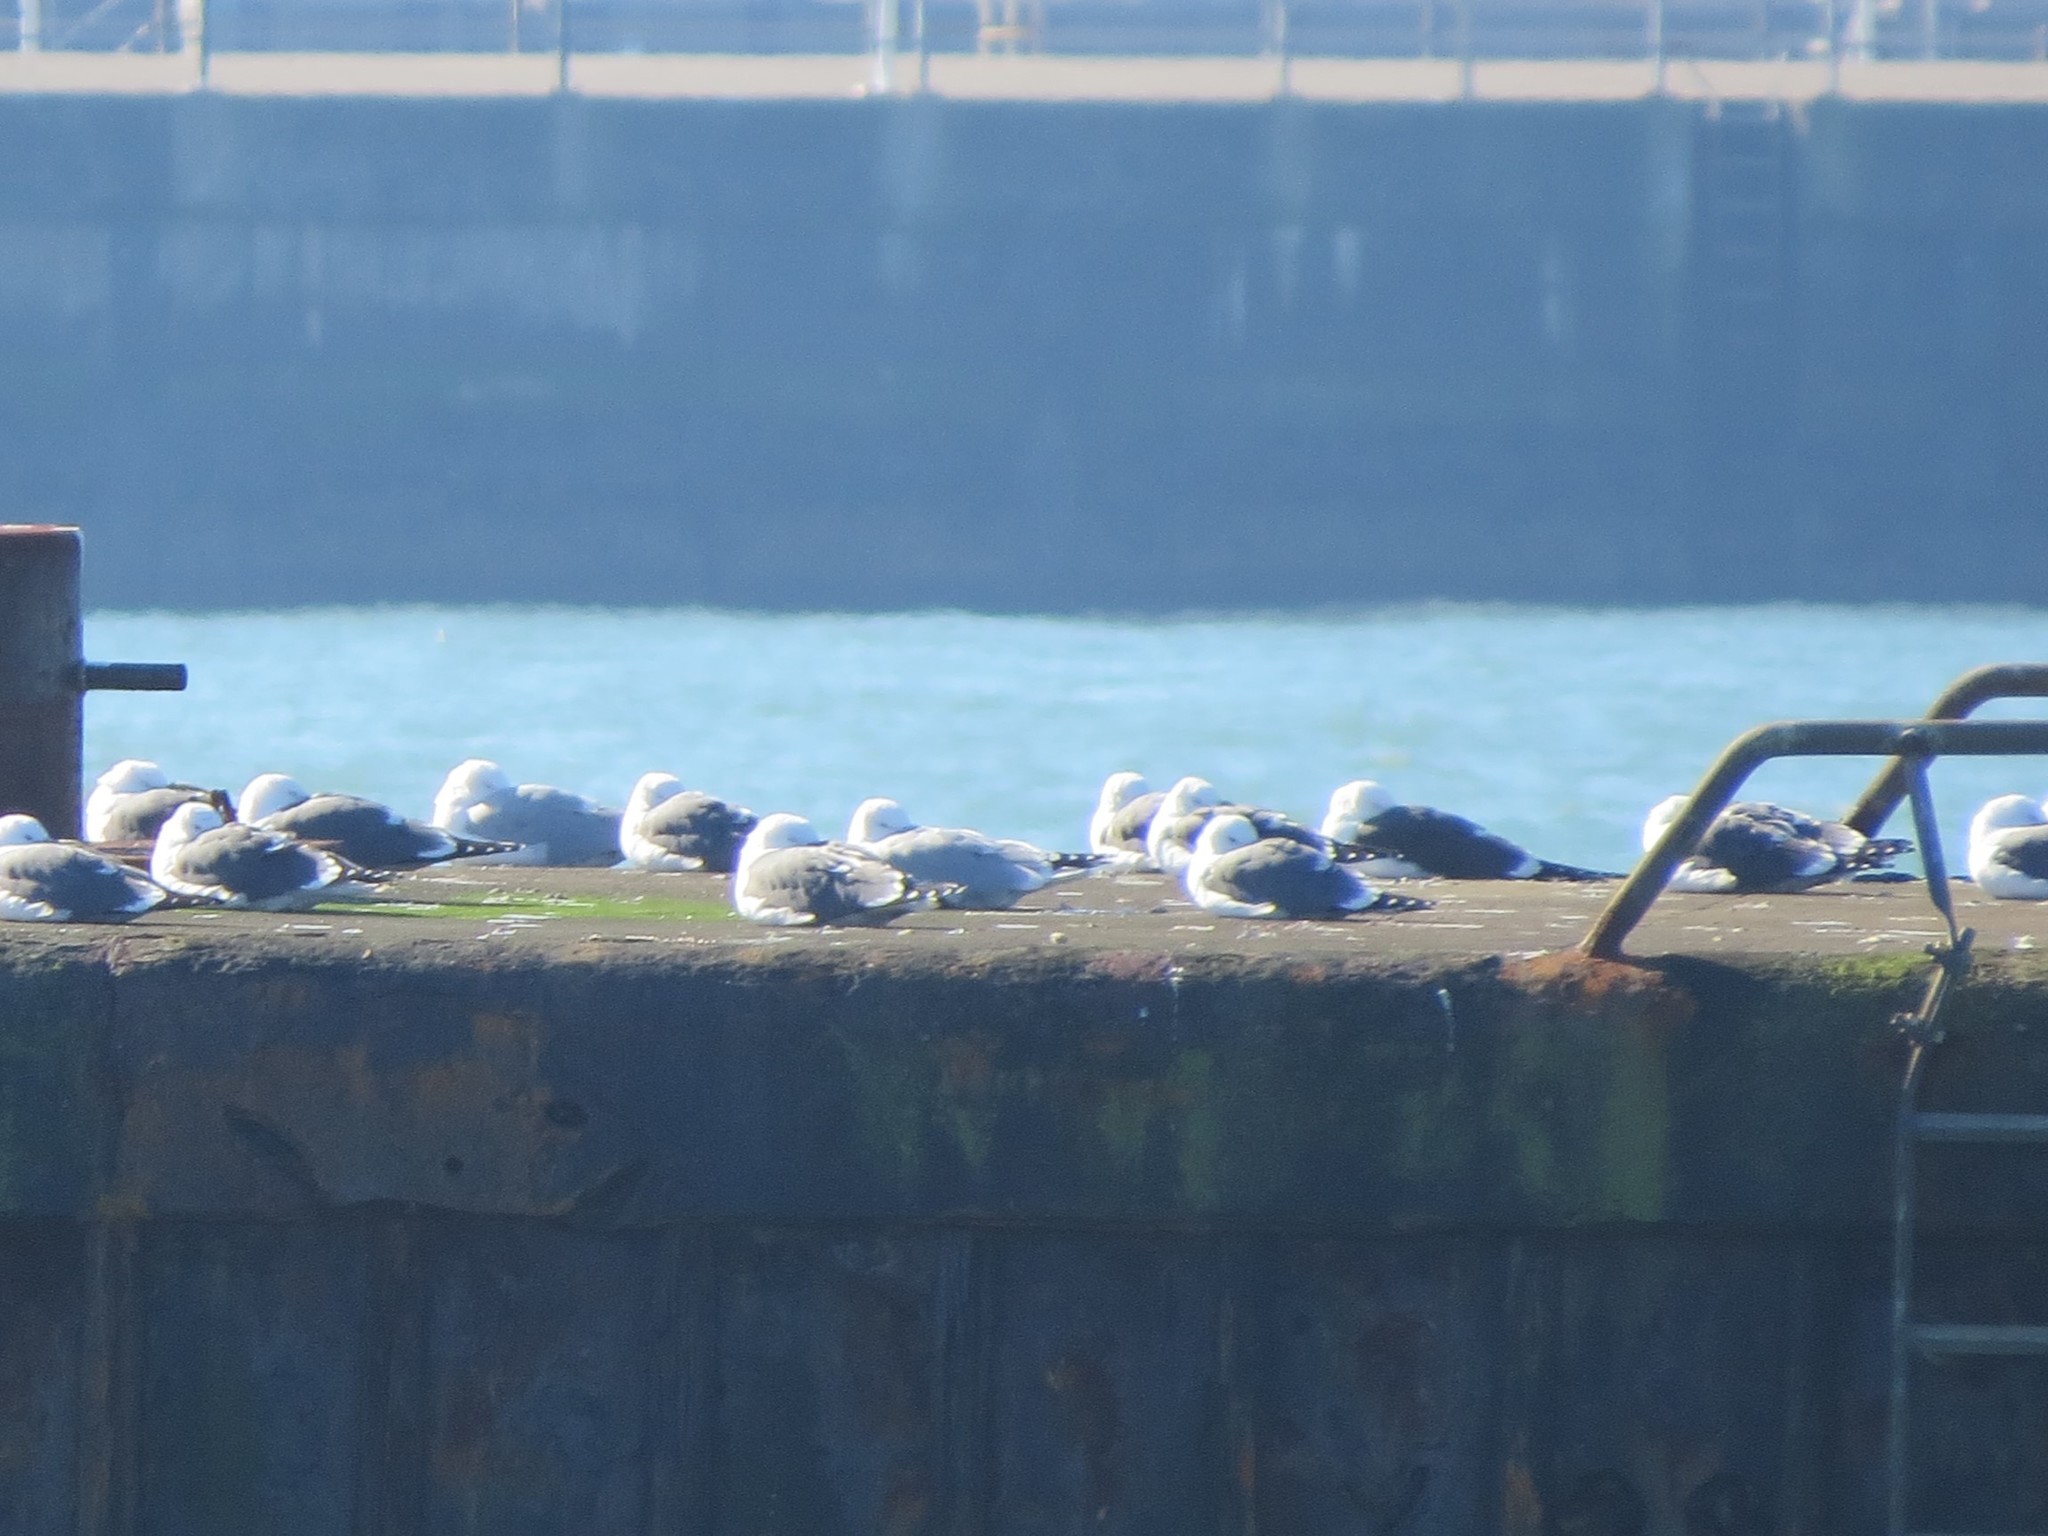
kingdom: Animalia
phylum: Chordata
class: Aves
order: Charadriiformes
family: Laridae
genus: Larus
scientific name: Larus fuscus
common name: Lesser black-backed gull
